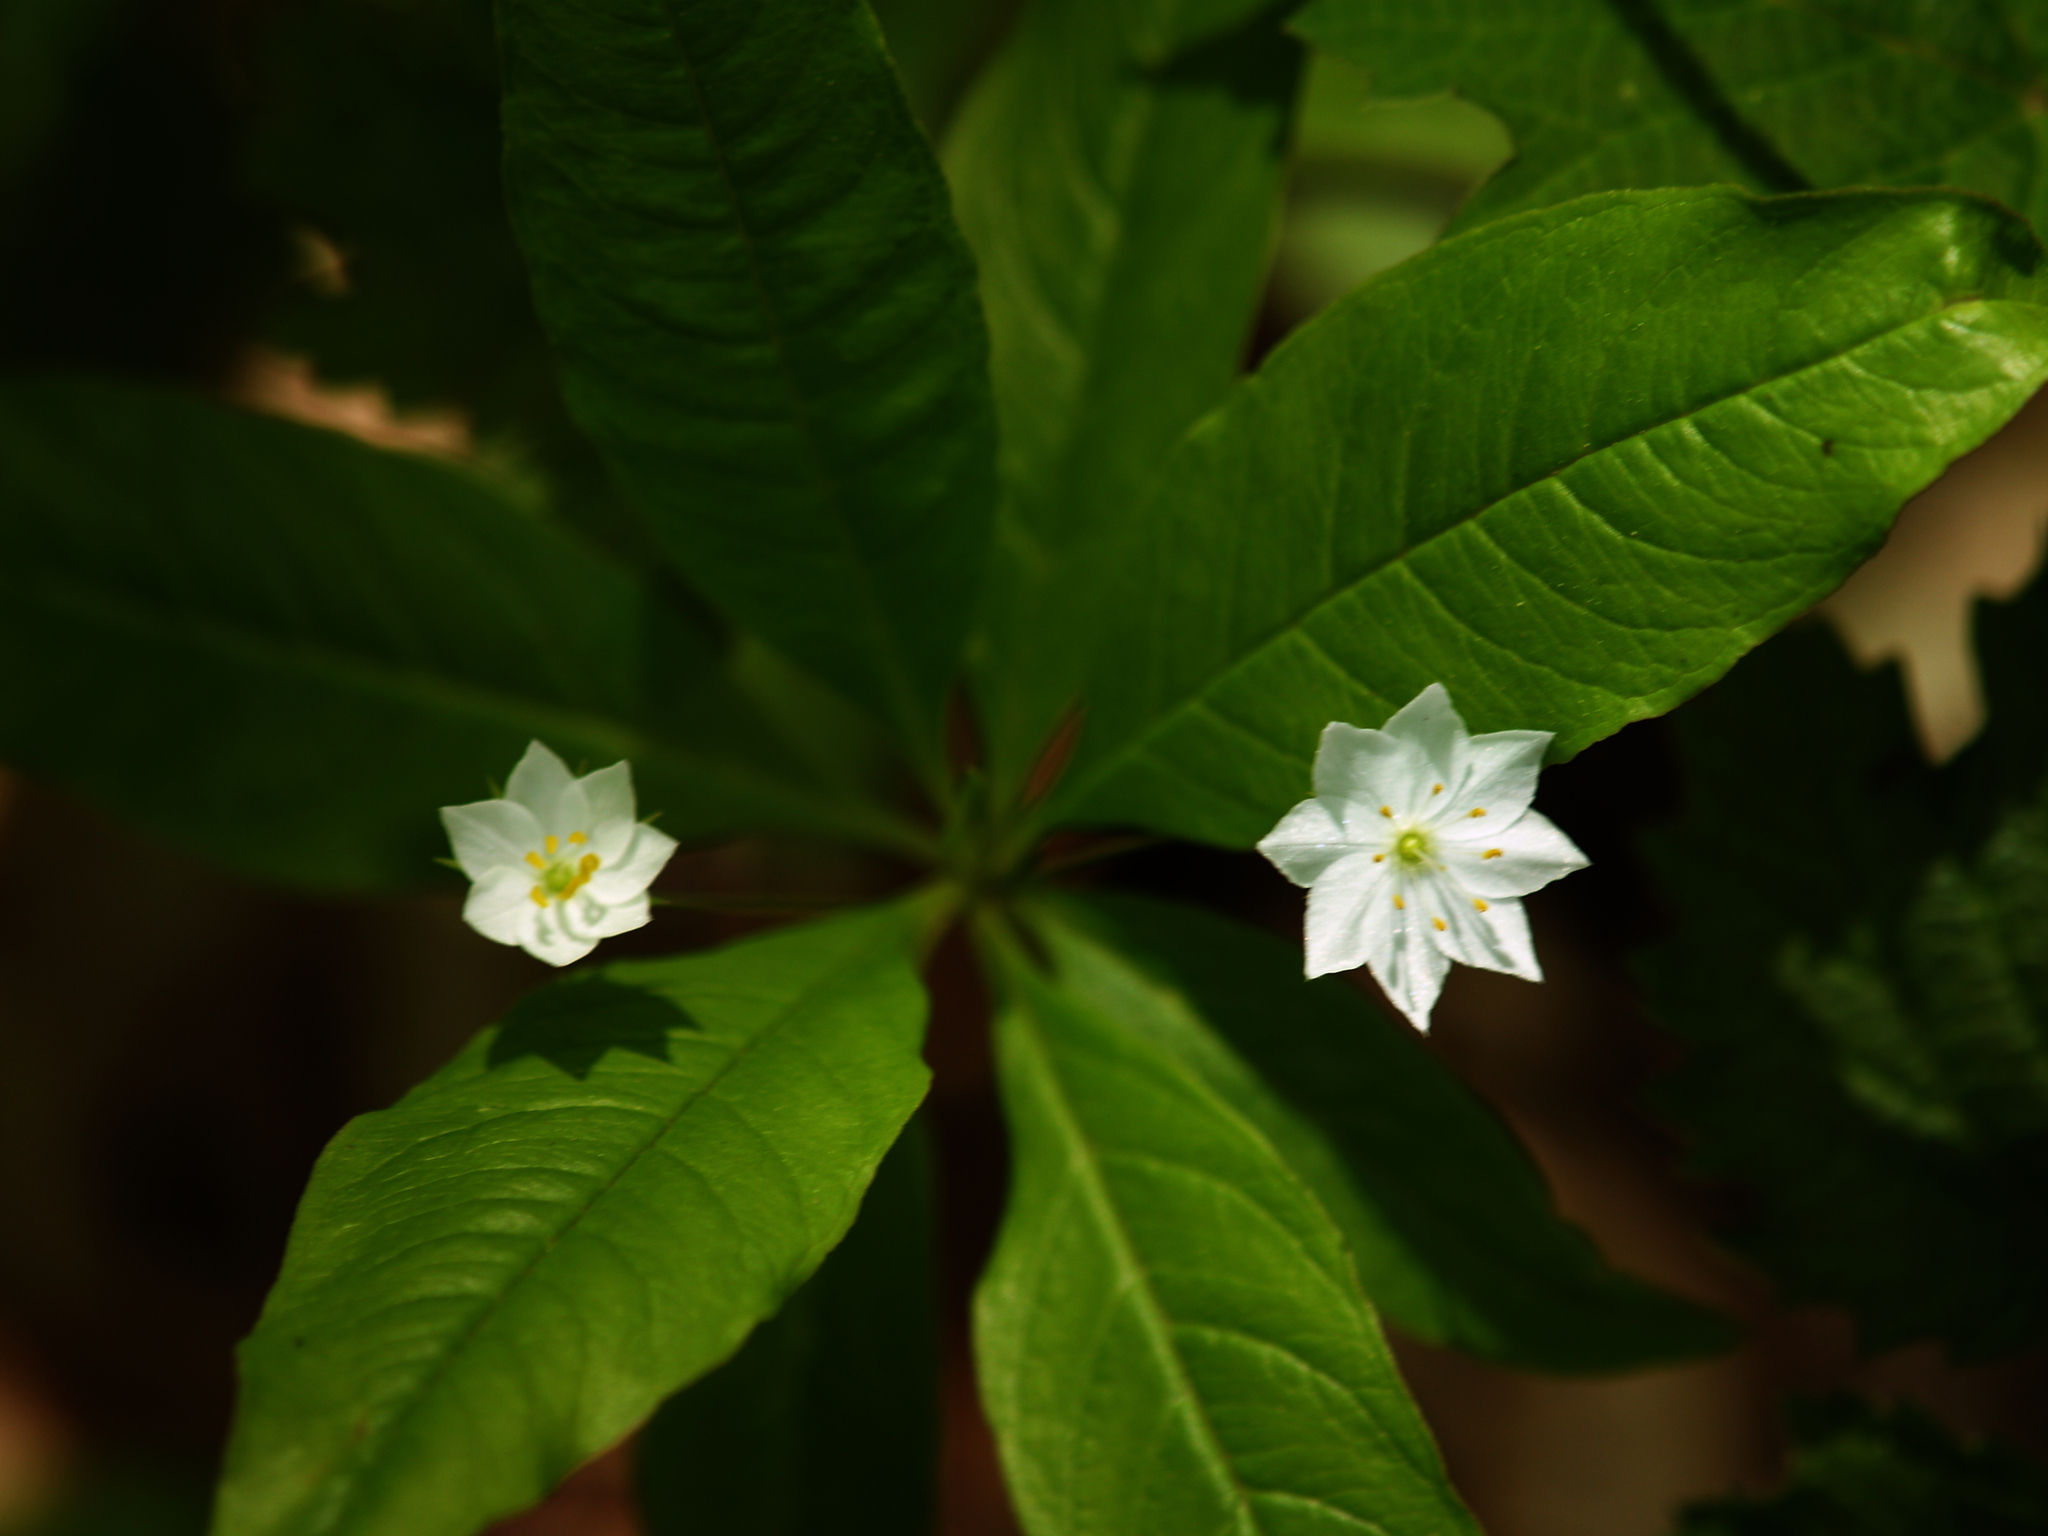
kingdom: Plantae
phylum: Tracheophyta
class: Magnoliopsida
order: Ericales
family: Primulaceae
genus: Lysimachia
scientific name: Lysimachia borealis
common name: American starflower
